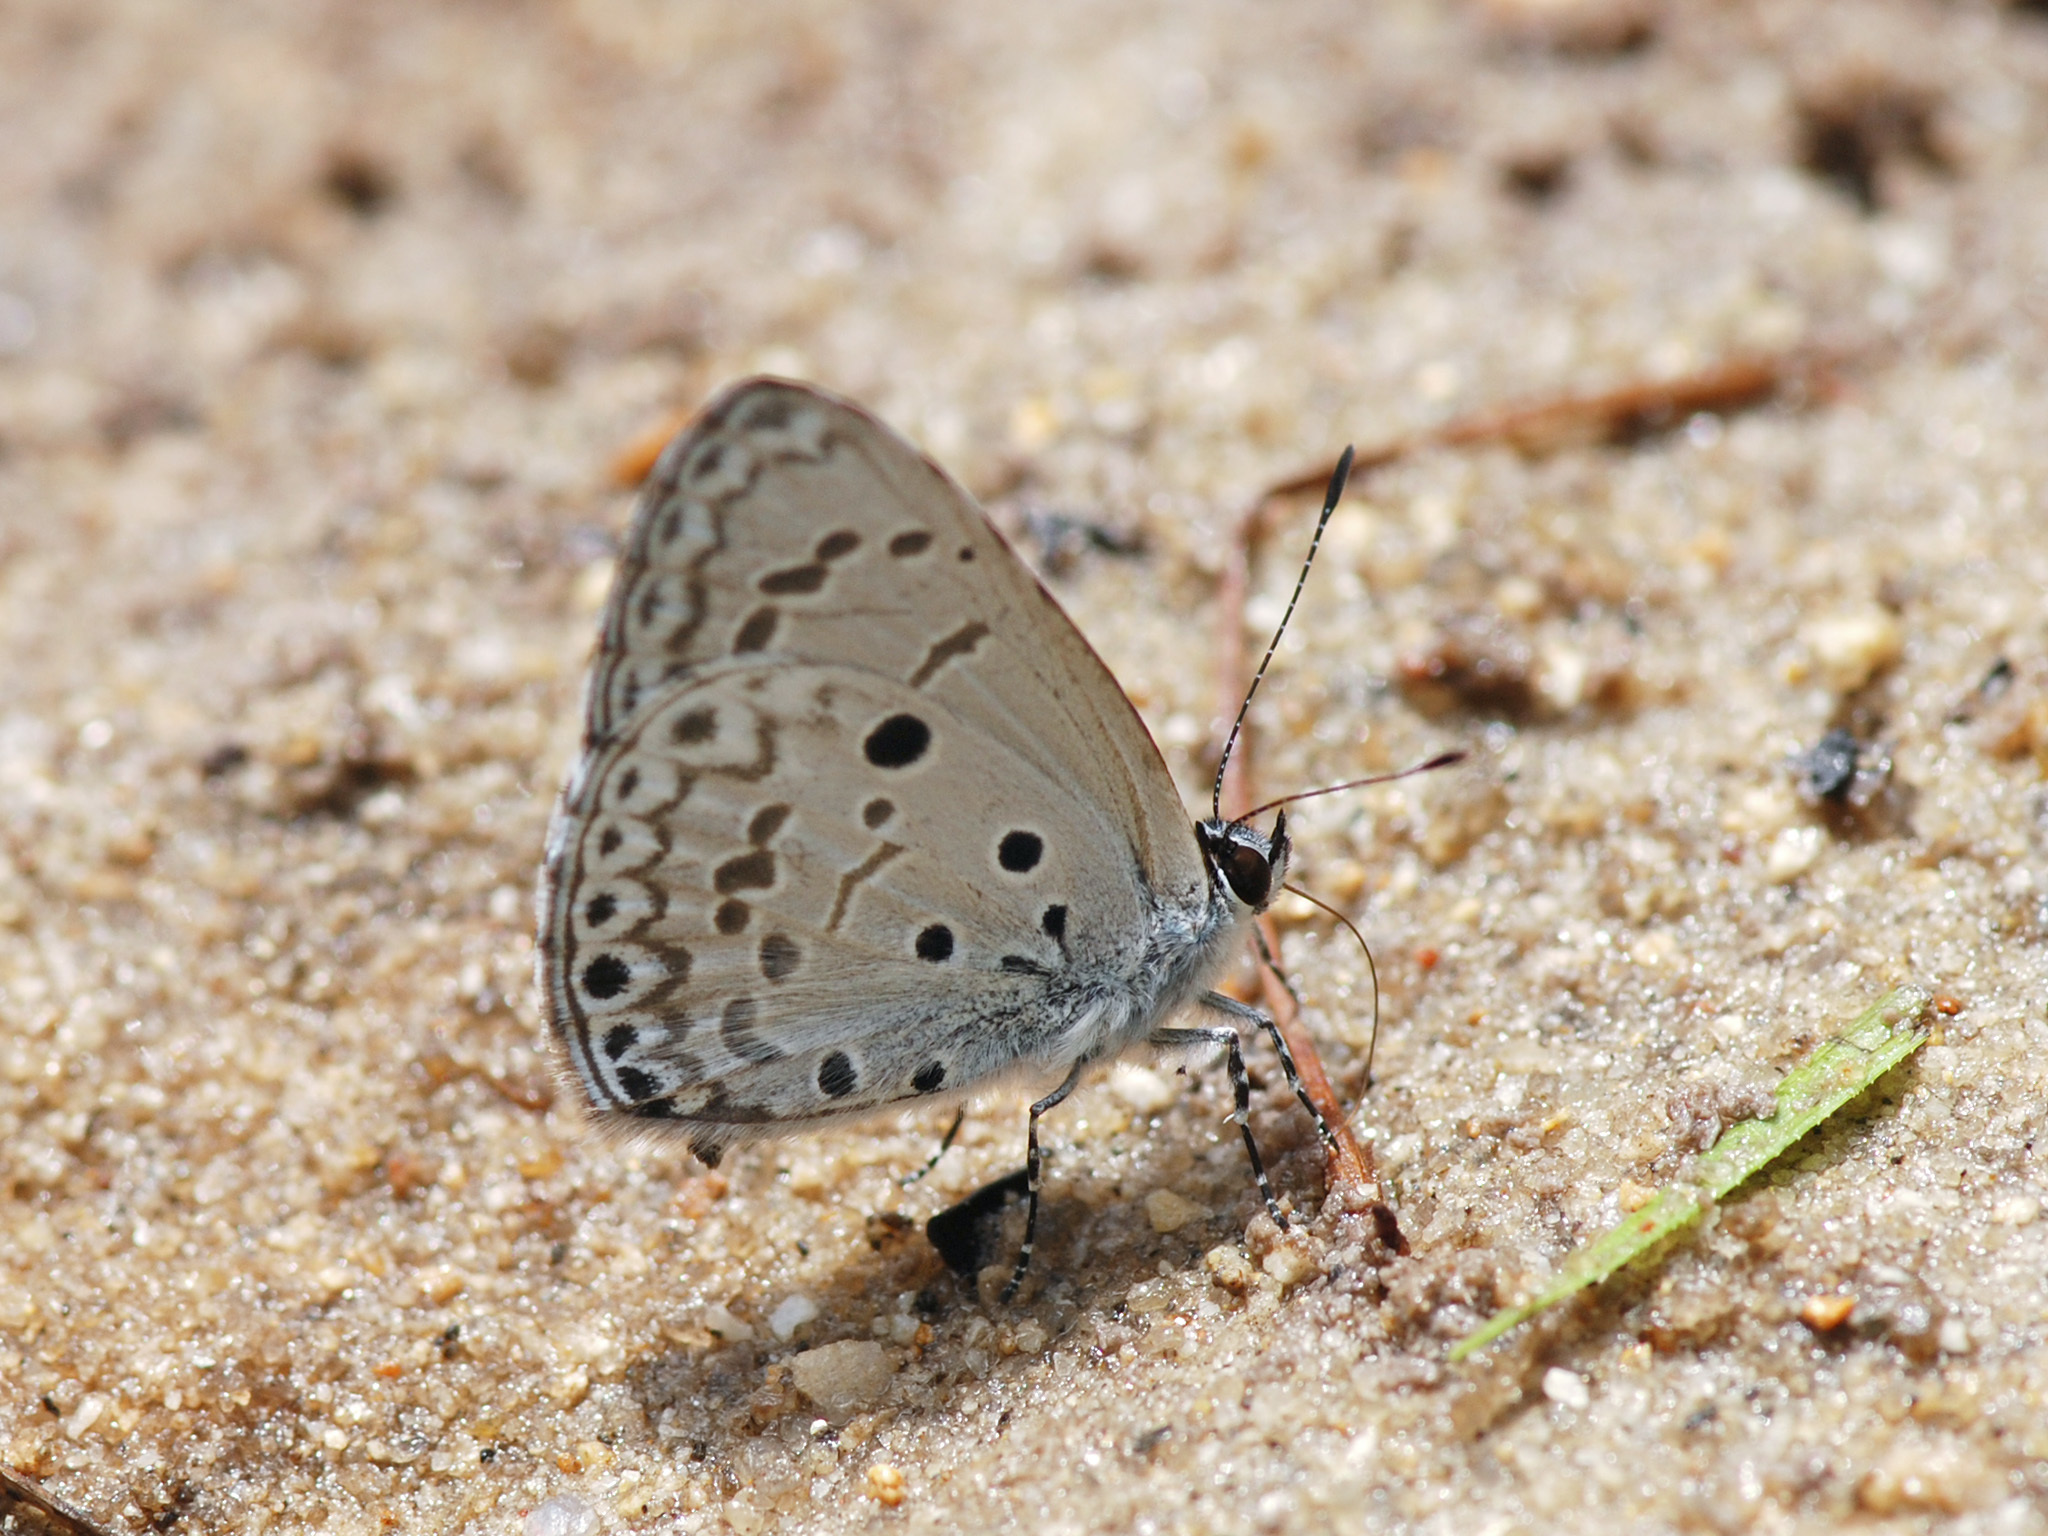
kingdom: Animalia
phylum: Arthropoda
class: Insecta
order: Lepidoptera
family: Lycaenidae
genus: Acytolepis
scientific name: Acytolepis puspa
